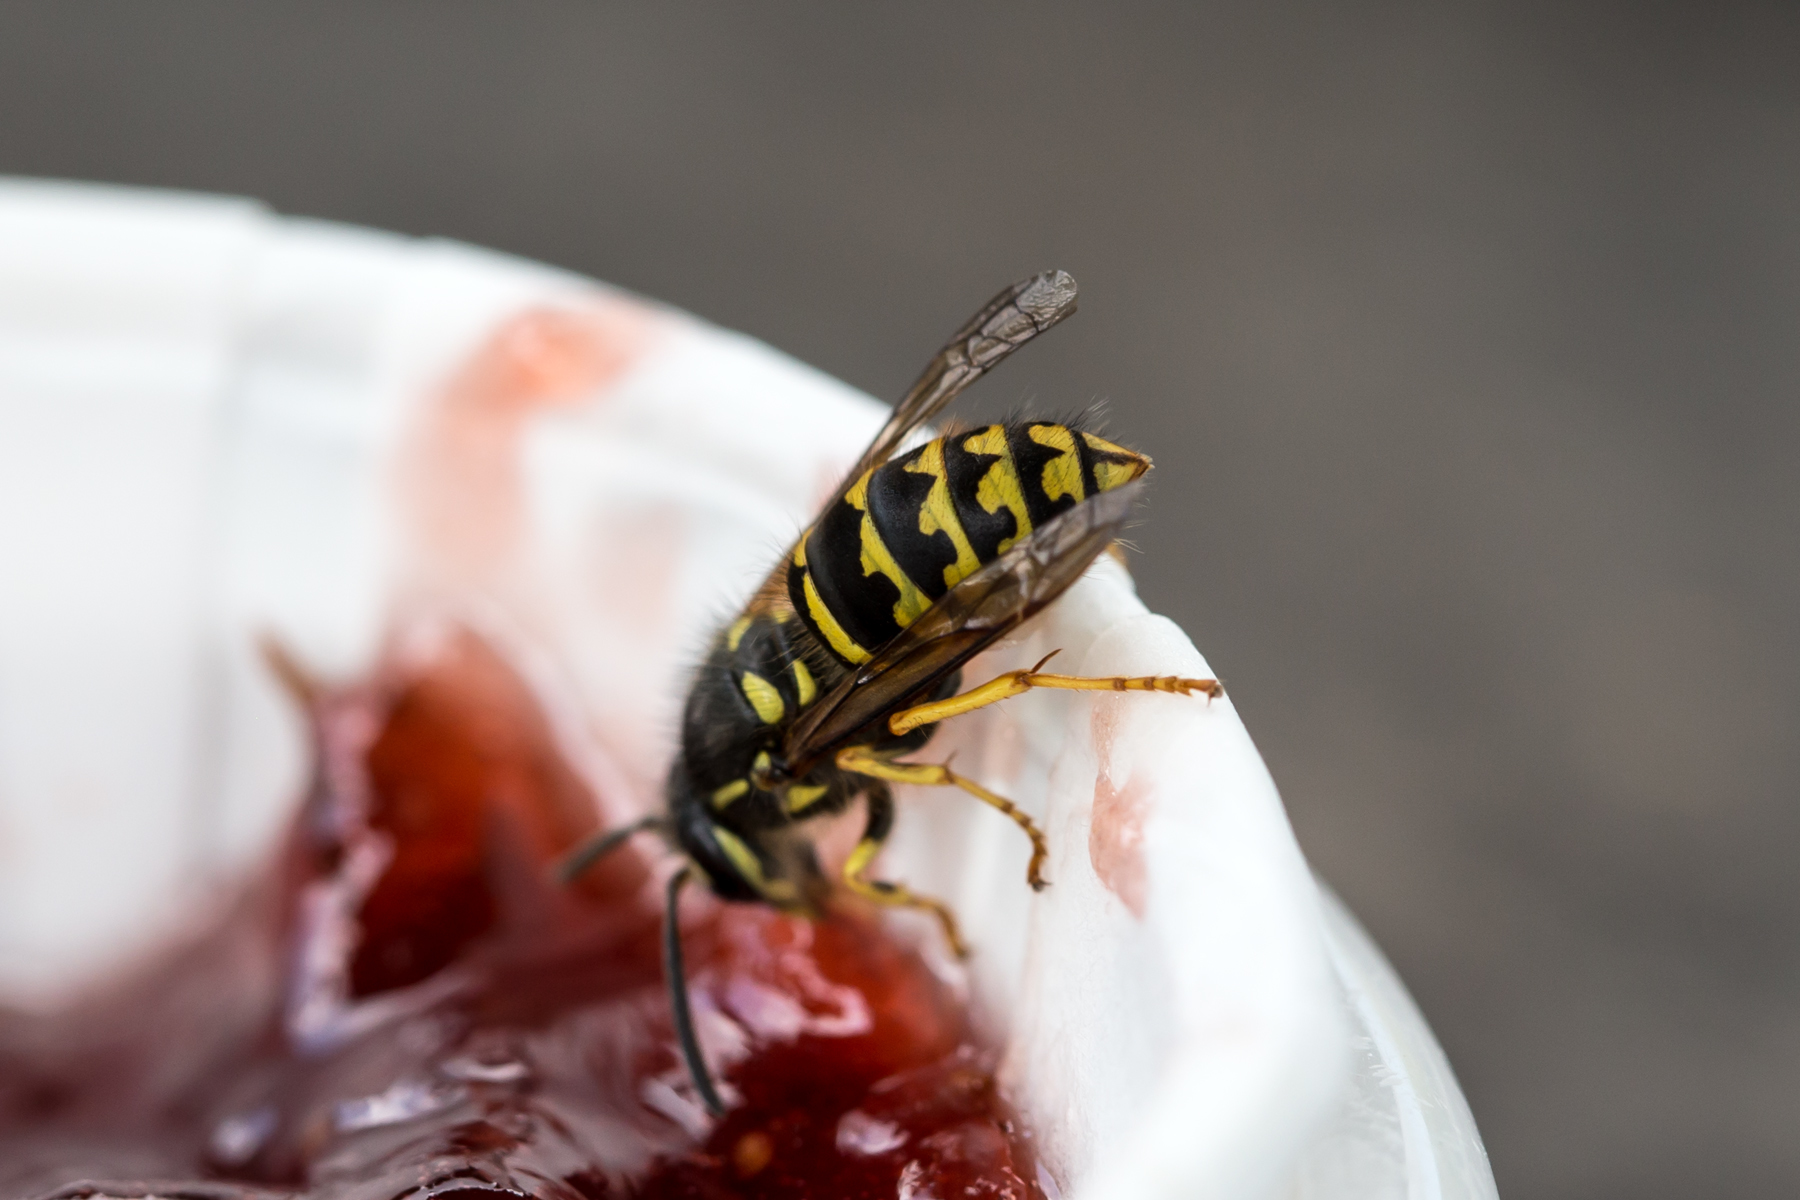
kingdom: Animalia
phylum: Arthropoda
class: Insecta
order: Hymenoptera
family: Vespidae
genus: Dolichovespula
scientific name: Dolichovespula arenaria
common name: Aerial yellowjacket
